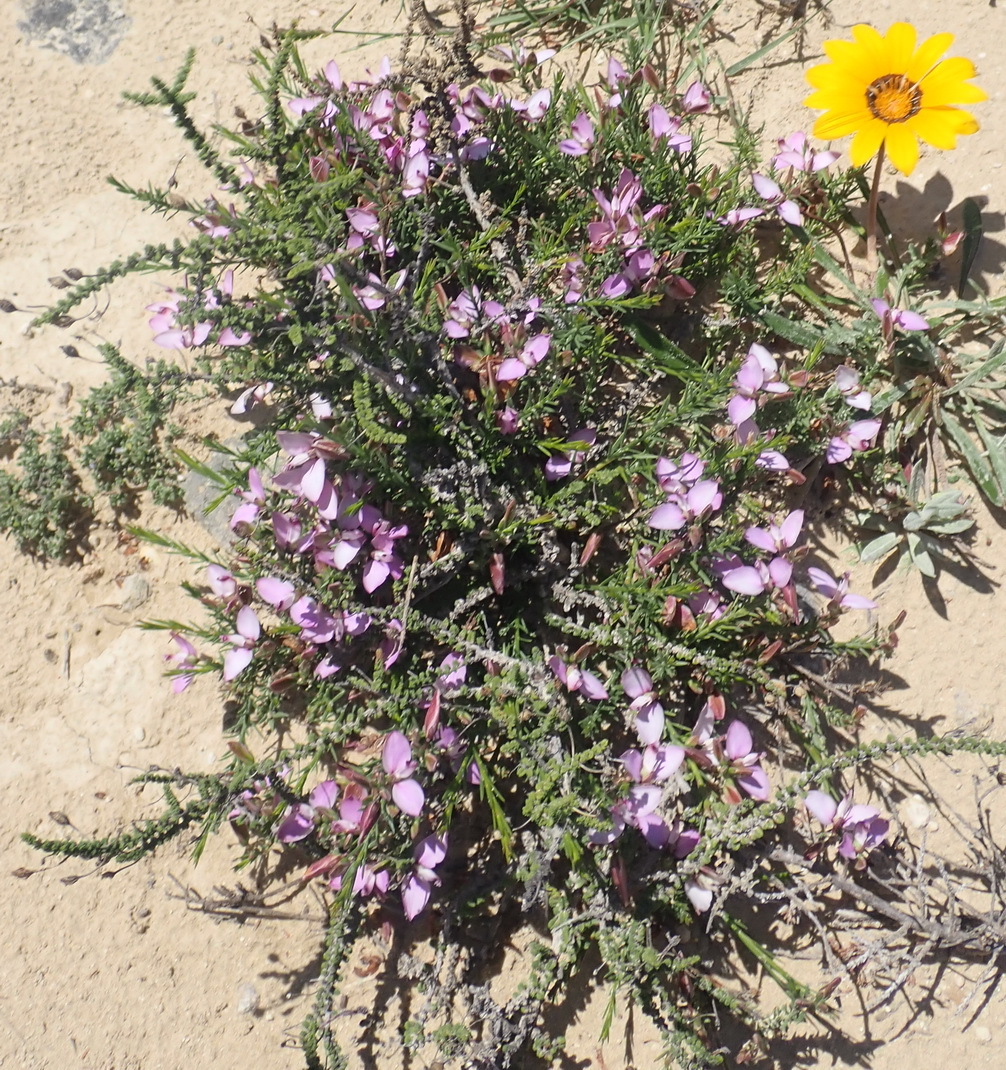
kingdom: Plantae
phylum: Tracheophyta
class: Magnoliopsida
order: Fabales
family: Polygalaceae
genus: Polygala
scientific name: Polygala ericifolia
